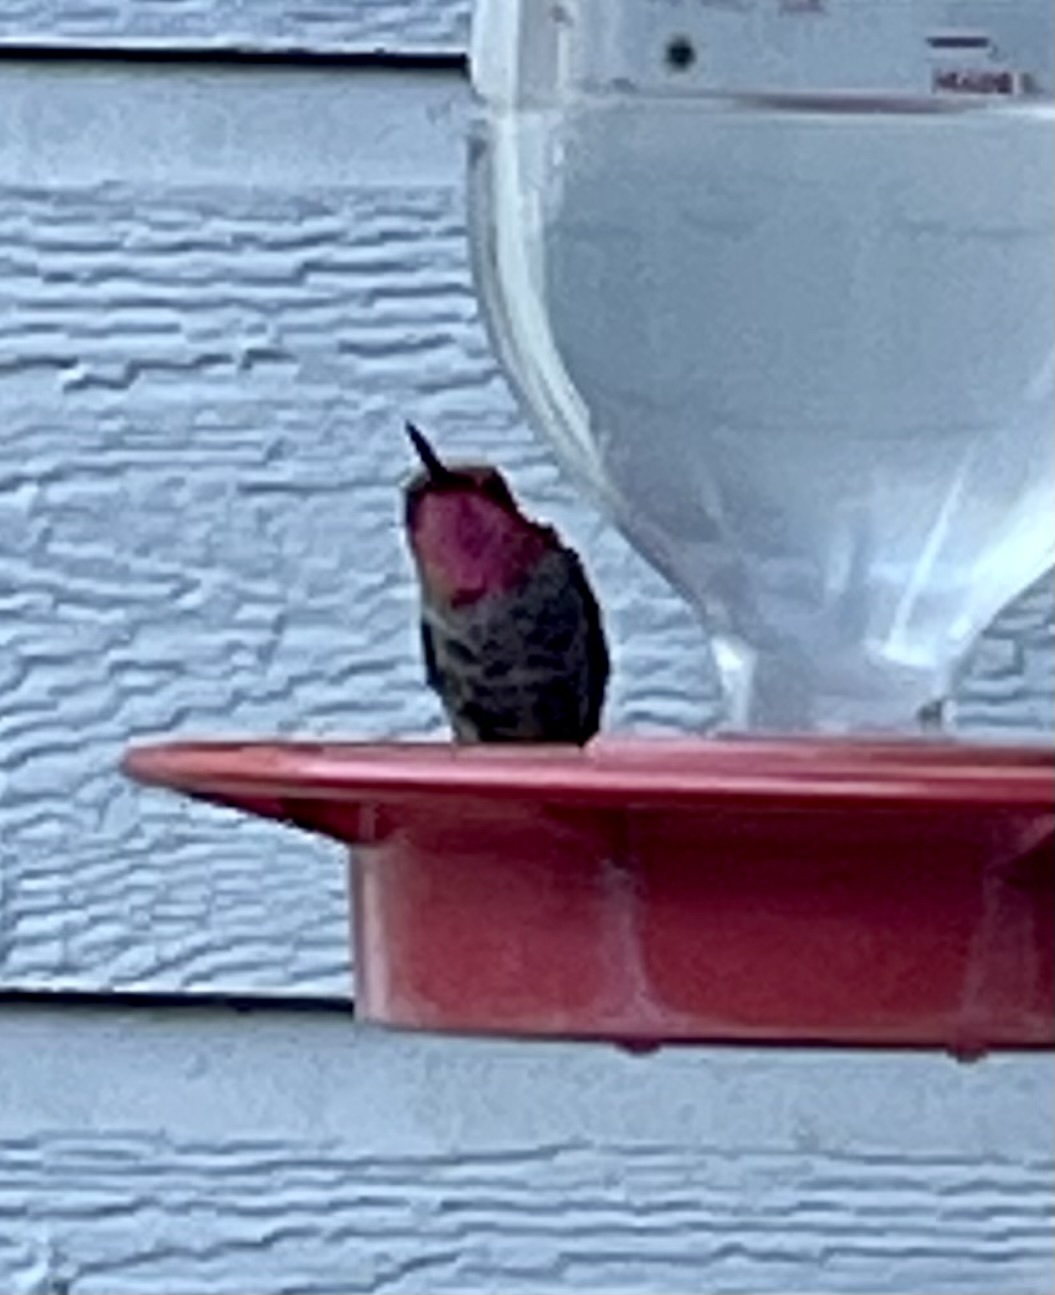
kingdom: Animalia
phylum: Chordata
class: Aves
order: Apodiformes
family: Trochilidae
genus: Calypte
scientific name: Calypte anna
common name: Anna's hummingbird
